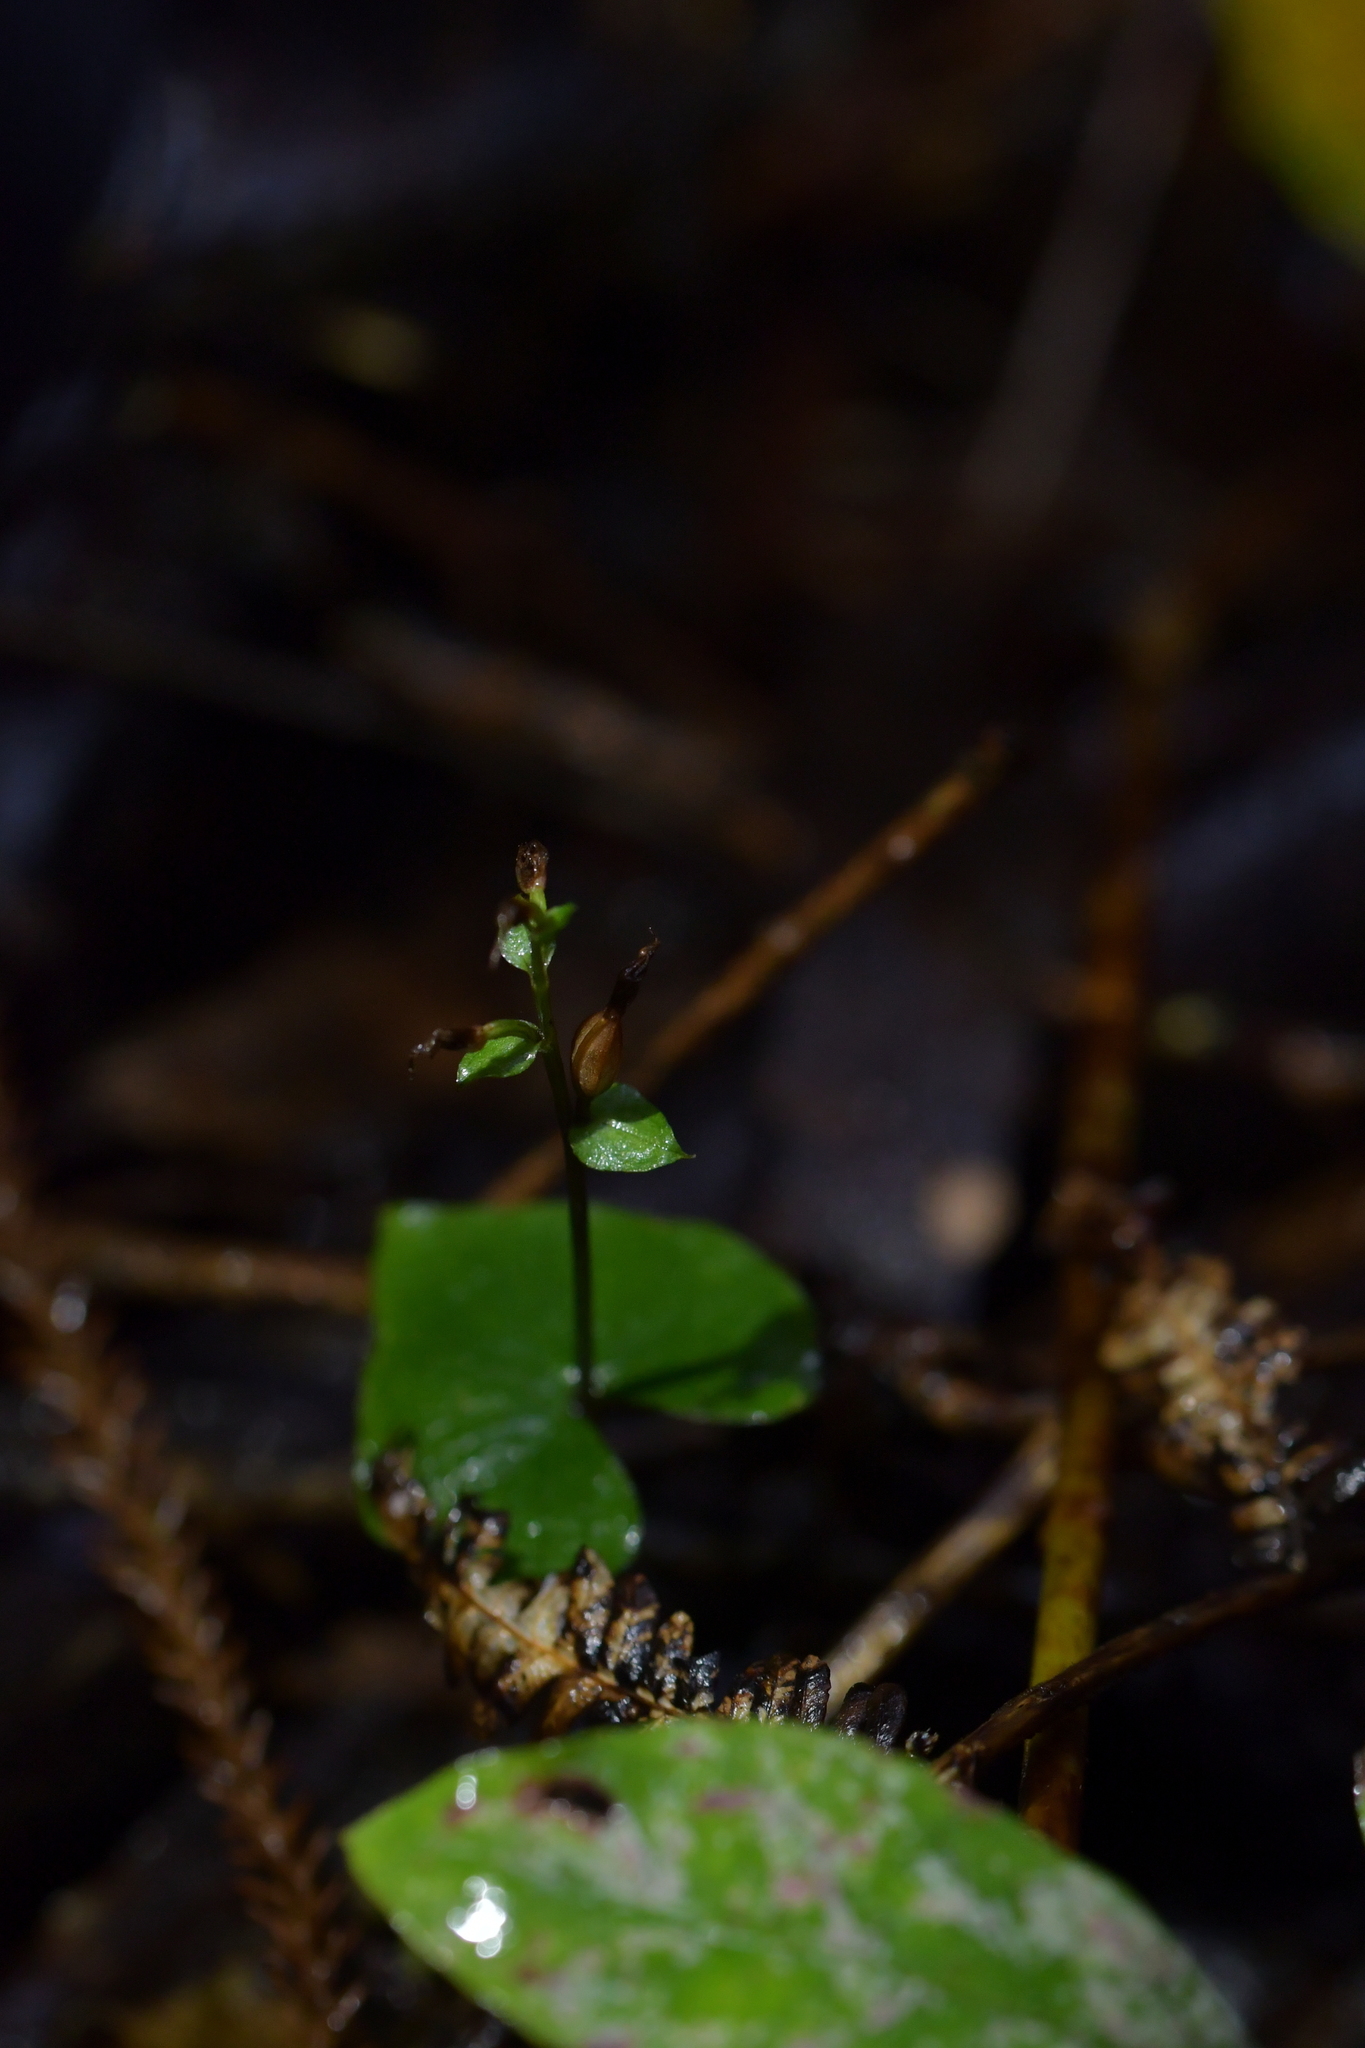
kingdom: Plantae
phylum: Tracheophyta
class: Liliopsida
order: Asparagales
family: Orchidaceae
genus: Acianthus
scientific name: Acianthus sinclairii
